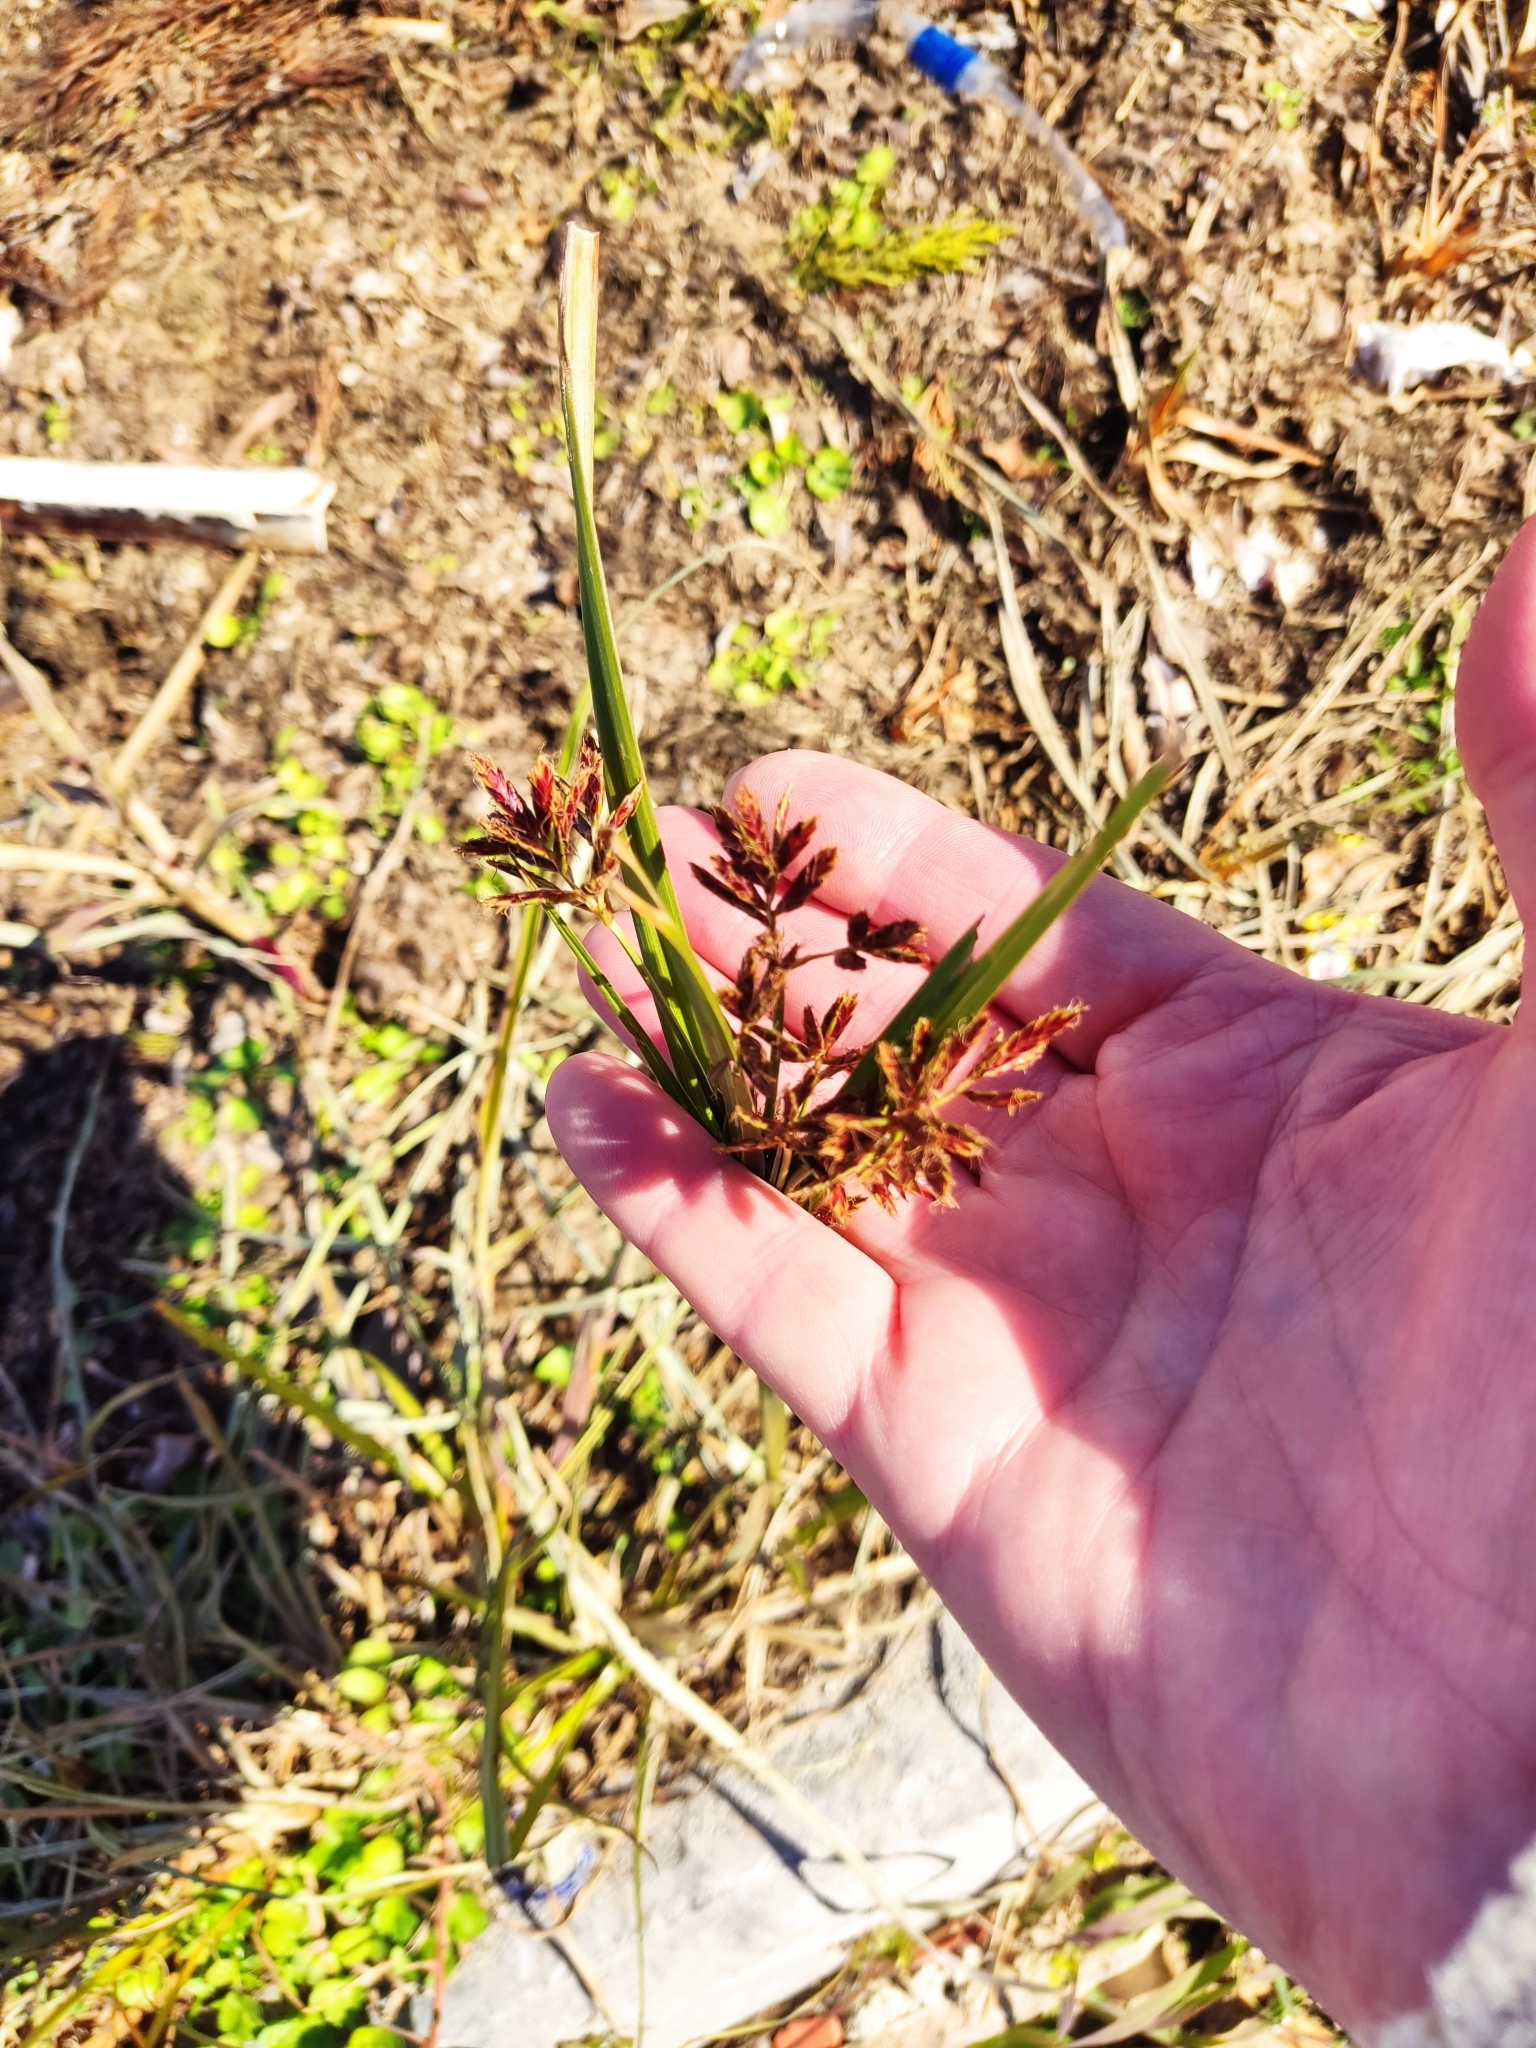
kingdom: Plantae
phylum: Tracheophyta
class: Liliopsida
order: Poales
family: Cyperaceae
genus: Cyperus
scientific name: Cyperus rotundus
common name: Nutgrass
